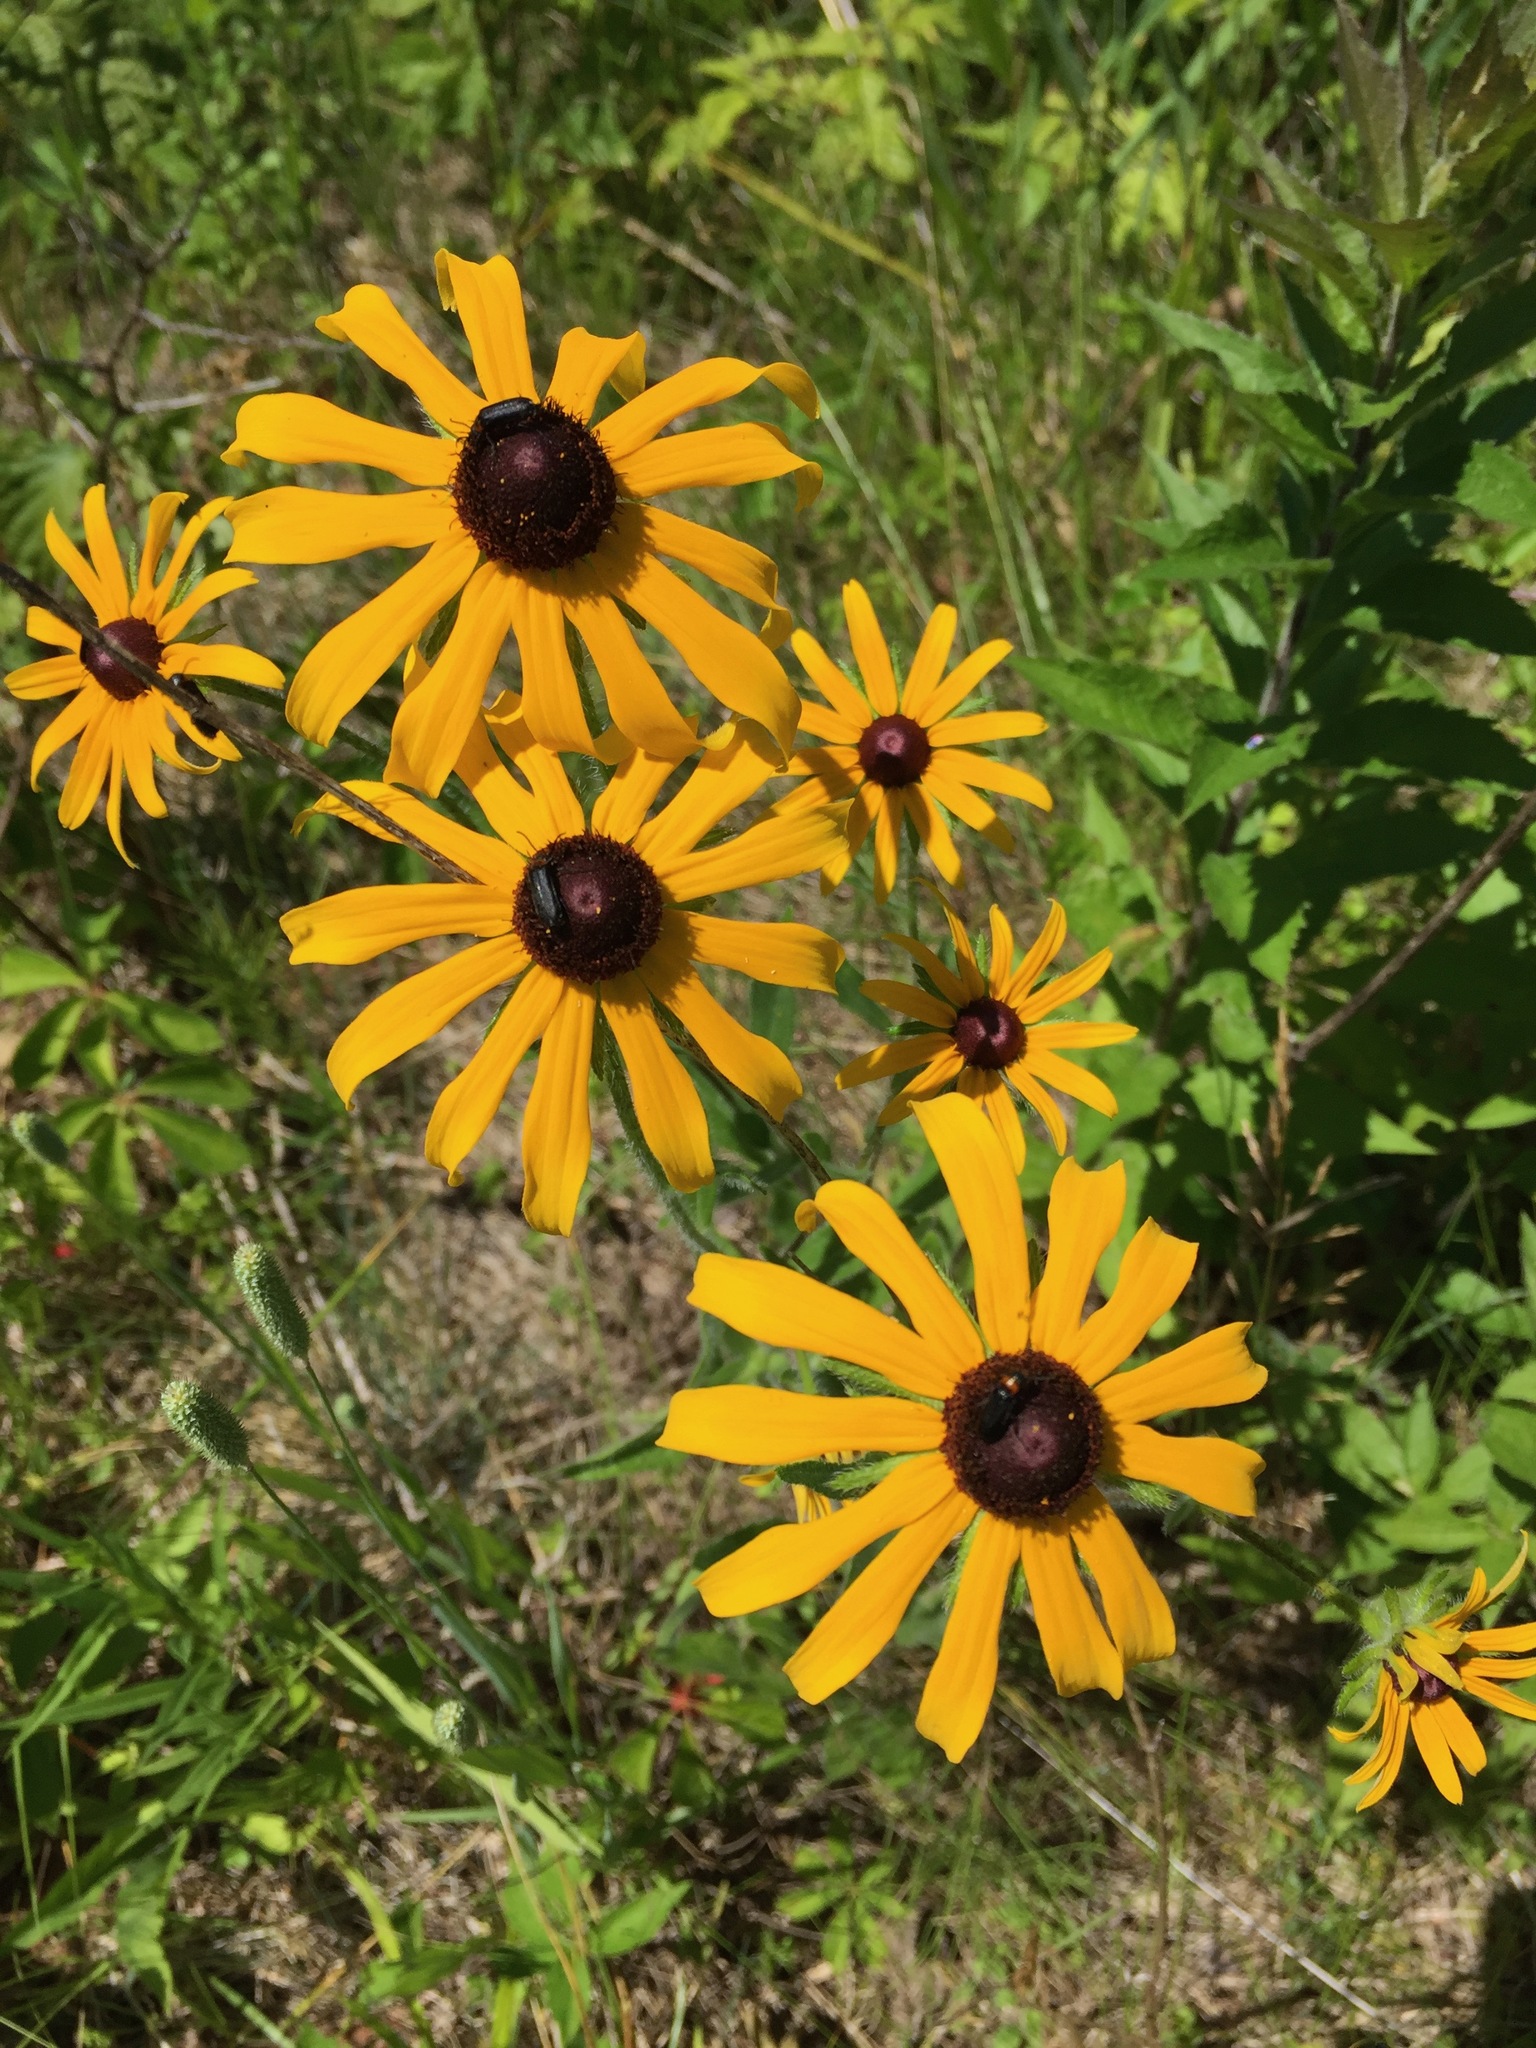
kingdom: Plantae
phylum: Tracheophyta
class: Magnoliopsida
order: Asterales
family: Asteraceae
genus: Rudbeckia
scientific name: Rudbeckia hirta
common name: Black-eyed-susan
